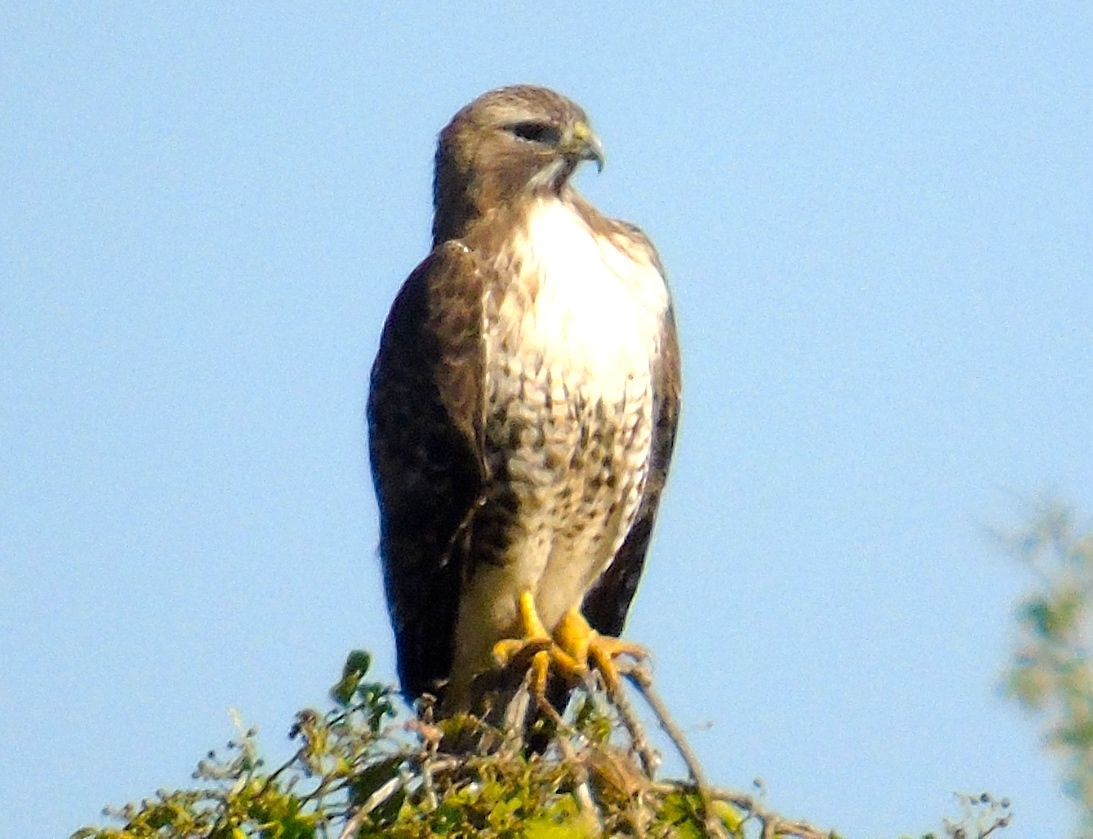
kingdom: Animalia
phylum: Chordata
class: Aves
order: Accipitriformes
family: Accipitridae
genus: Buteo
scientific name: Buteo jamaicensis
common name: Red-tailed hawk
